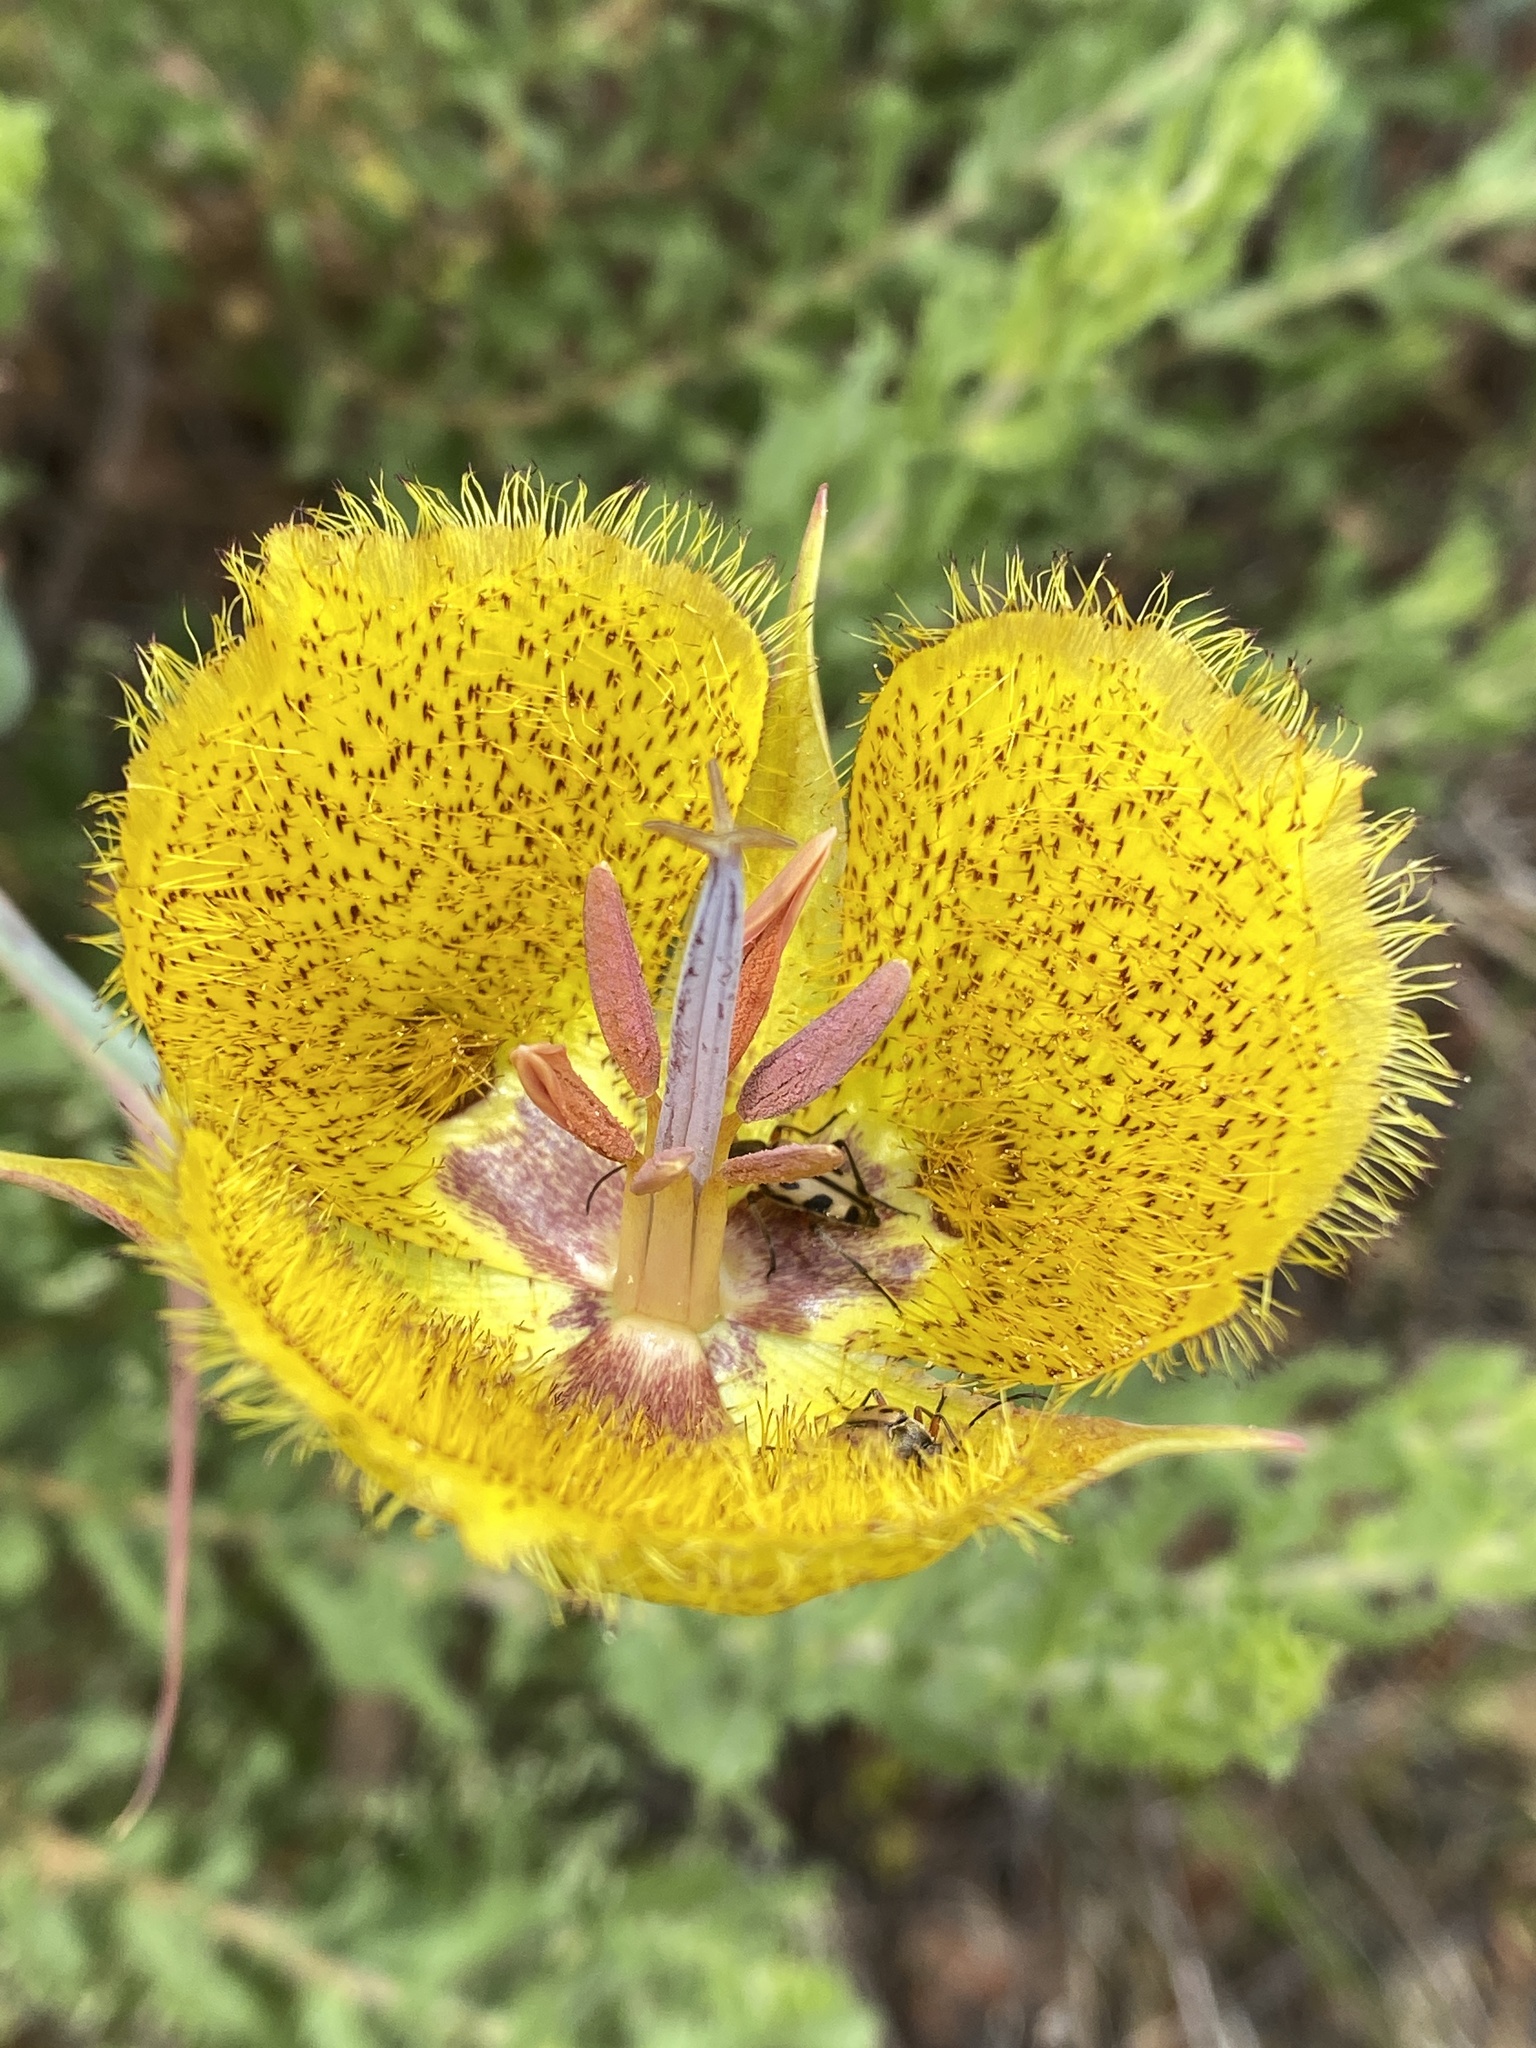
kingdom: Plantae
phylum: Tracheophyta
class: Liliopsida
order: Liliales
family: Liliaceae
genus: Calochortus
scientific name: Calochortus weedii
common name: Weed's mariposa-lily
